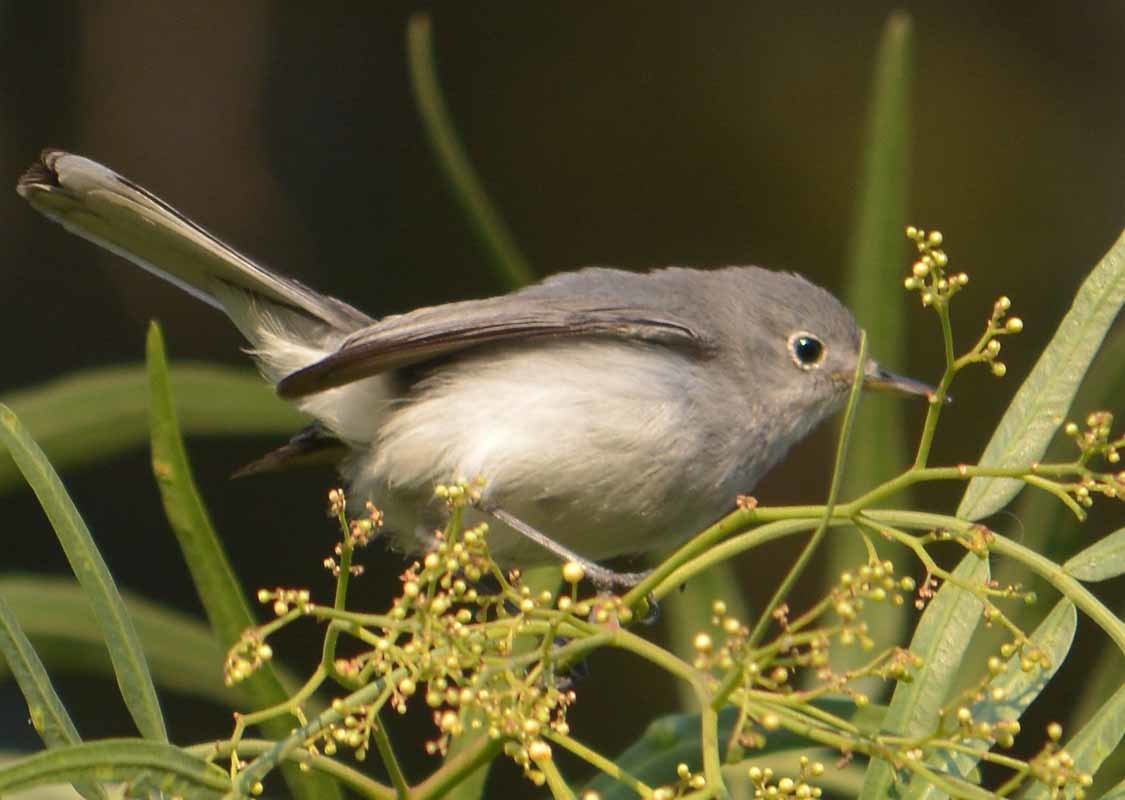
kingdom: Animalia
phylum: Chordata
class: Aves
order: Passeriformes
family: Polioptilidae
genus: Polioptila
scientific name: Polioptila caerulea
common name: Blue-gray gnatcatcher
